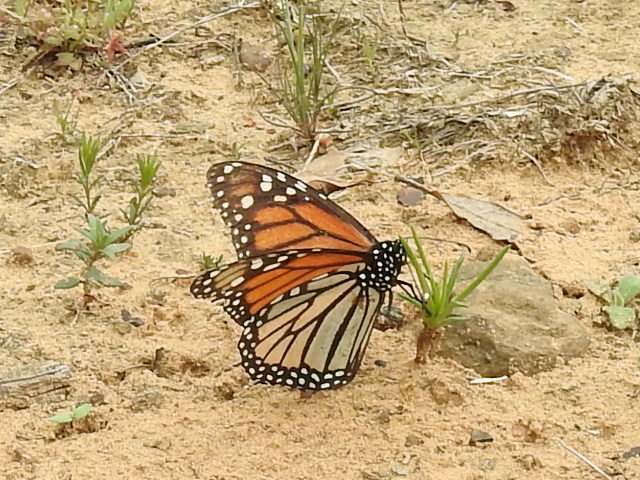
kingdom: Animalia
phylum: Arthropoda
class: Insecta
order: Lepidoptera
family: Nymphalidae
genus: Danaus
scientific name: Danaus plexippus
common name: Monarch
